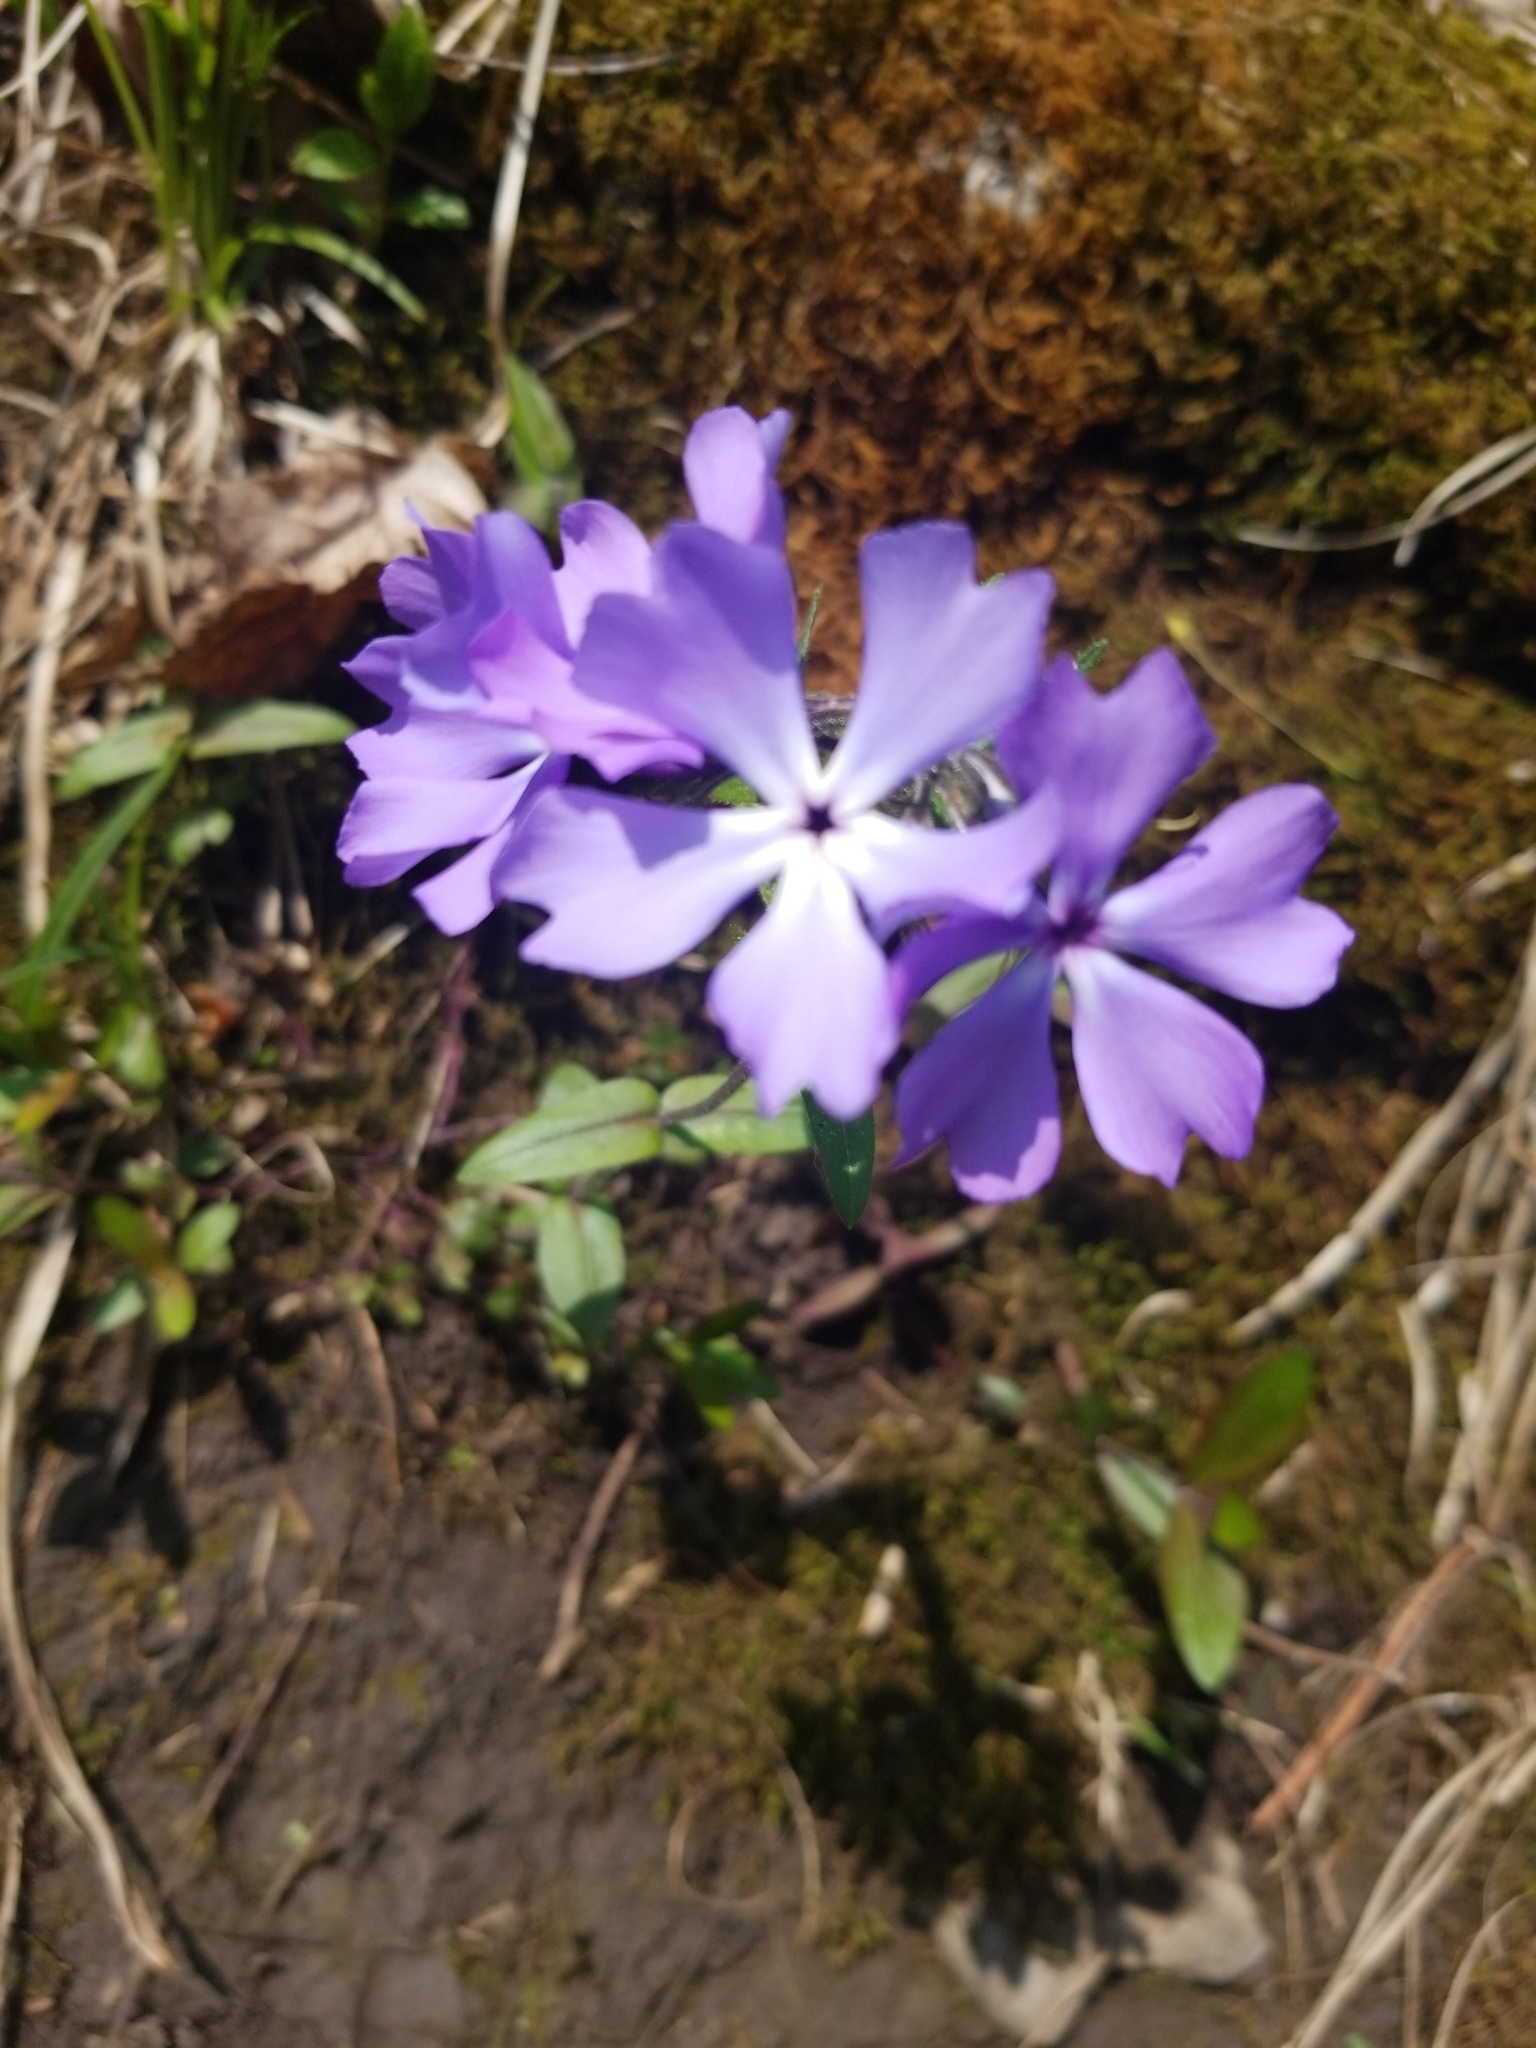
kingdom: Plantae
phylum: Tracheophyta
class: Magnoliopsida
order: Ericales
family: Polemoniaceae
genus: Phlox
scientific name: Phlox divaricata
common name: Blue phlox
